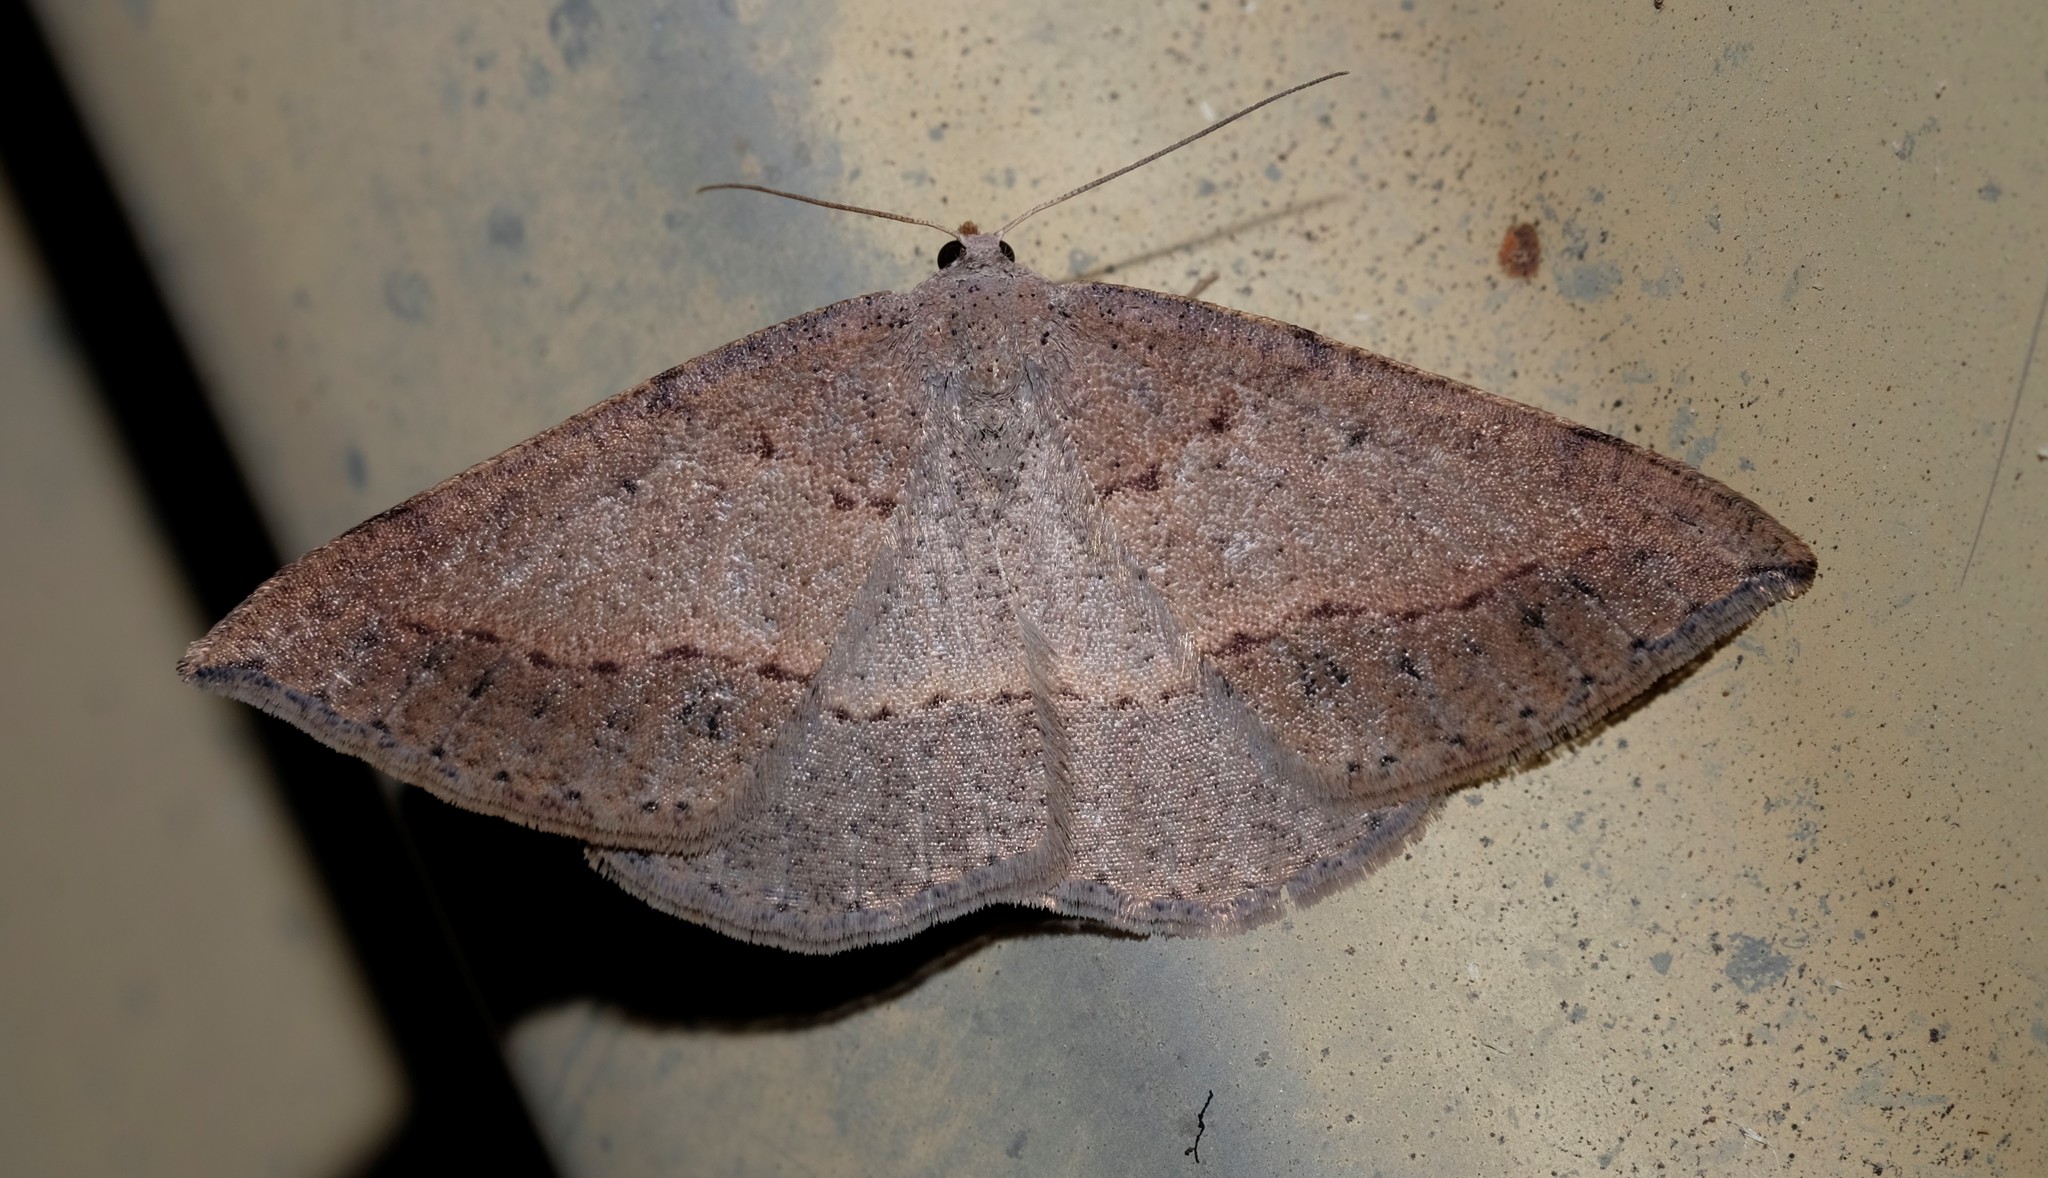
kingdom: Animalia
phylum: Arthropoda
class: Insecta
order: Lepidoptera
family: Geometridae
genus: Taxeotis
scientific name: Taxeotis perlinearia
